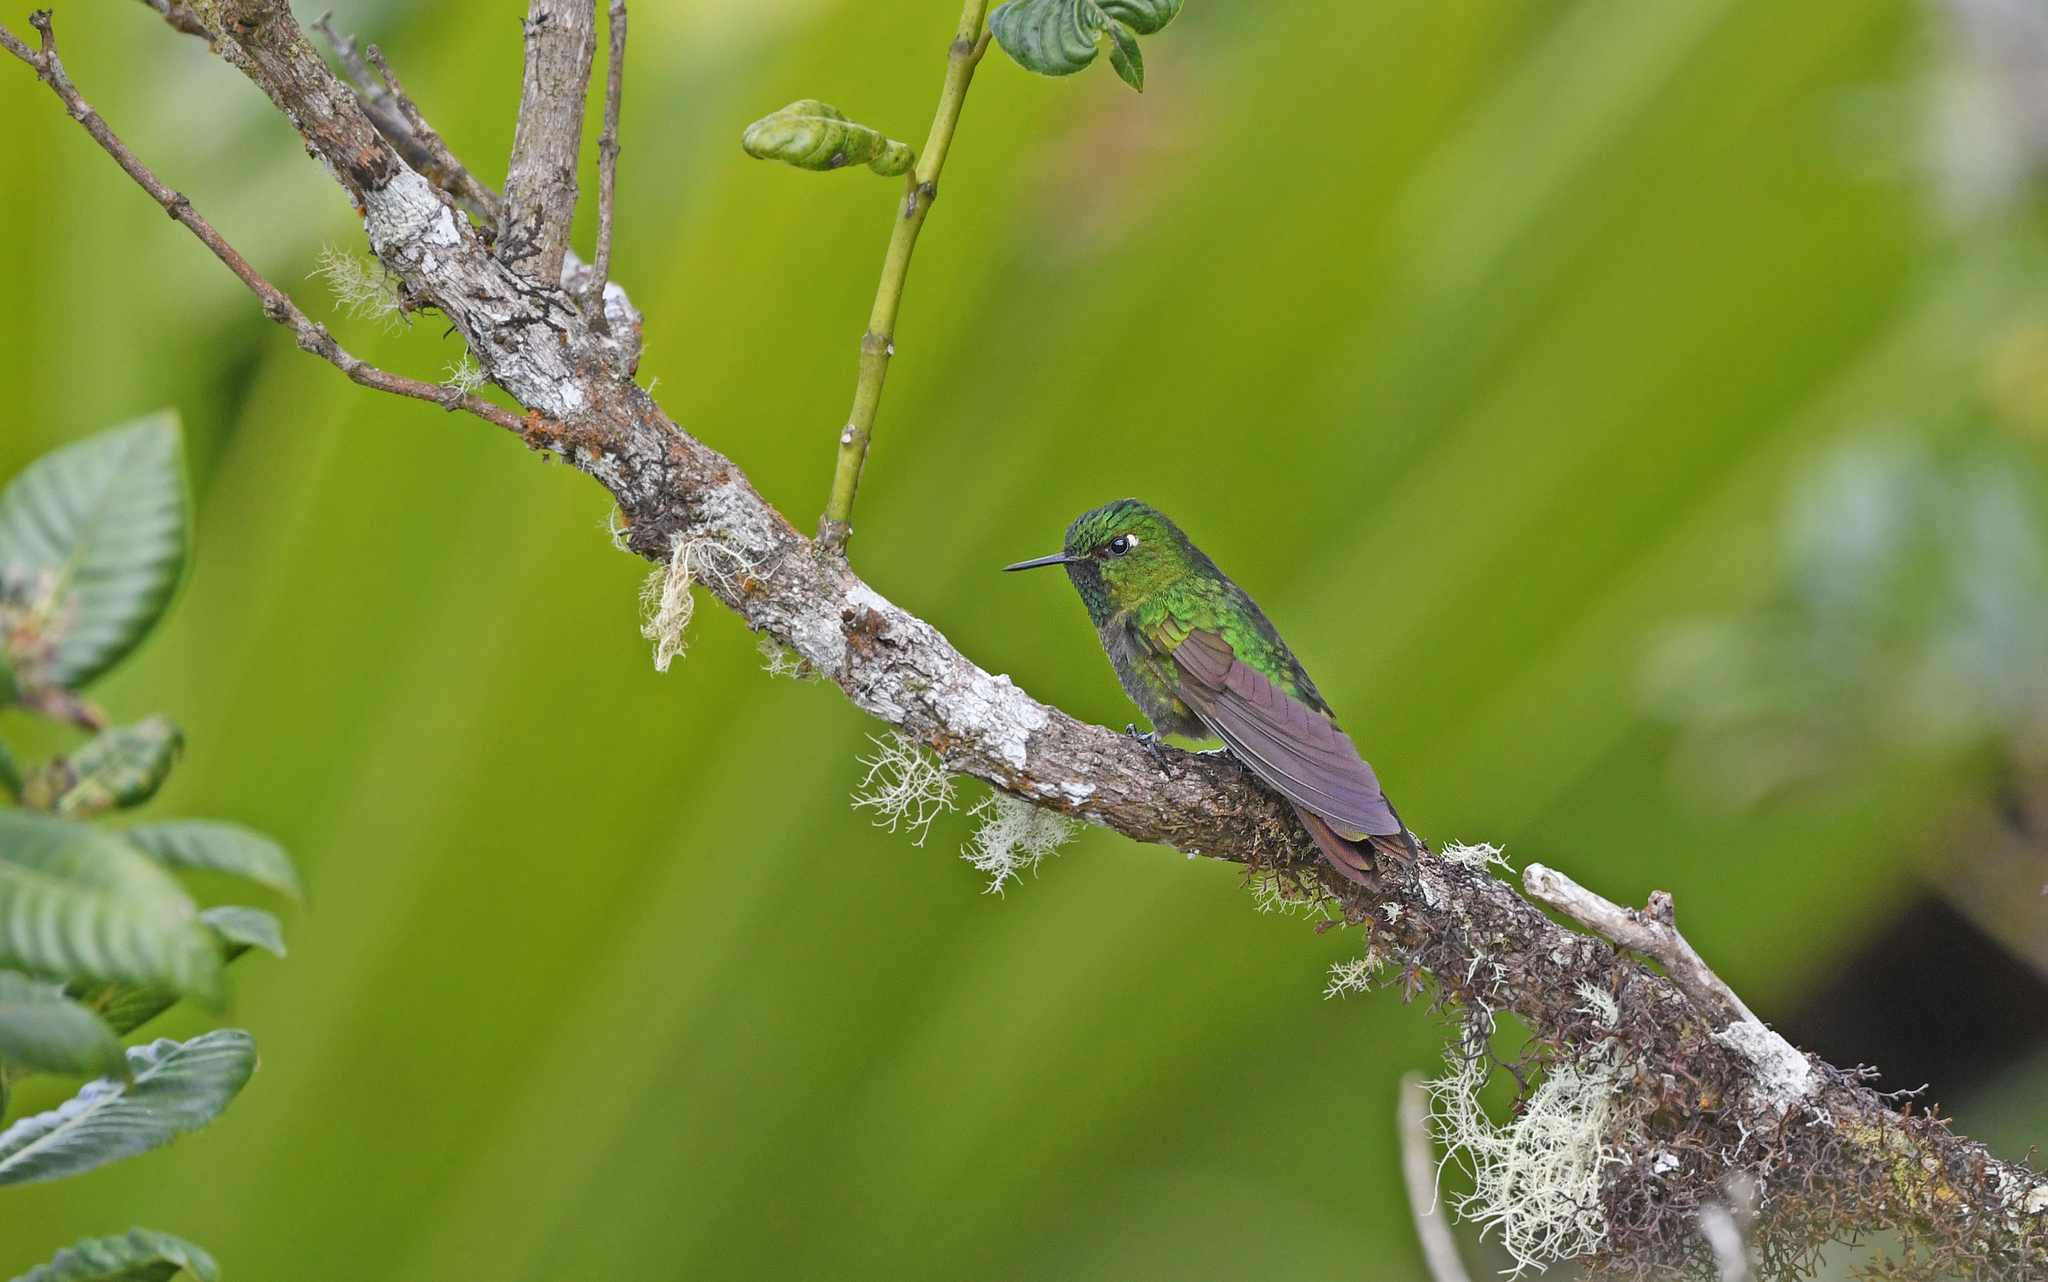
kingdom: Animalia
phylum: Chordata
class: Aves
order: Apodiformes
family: Trochilidae
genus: Metallura
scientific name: Metallura tyrianthina
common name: Tyrian metaltail
